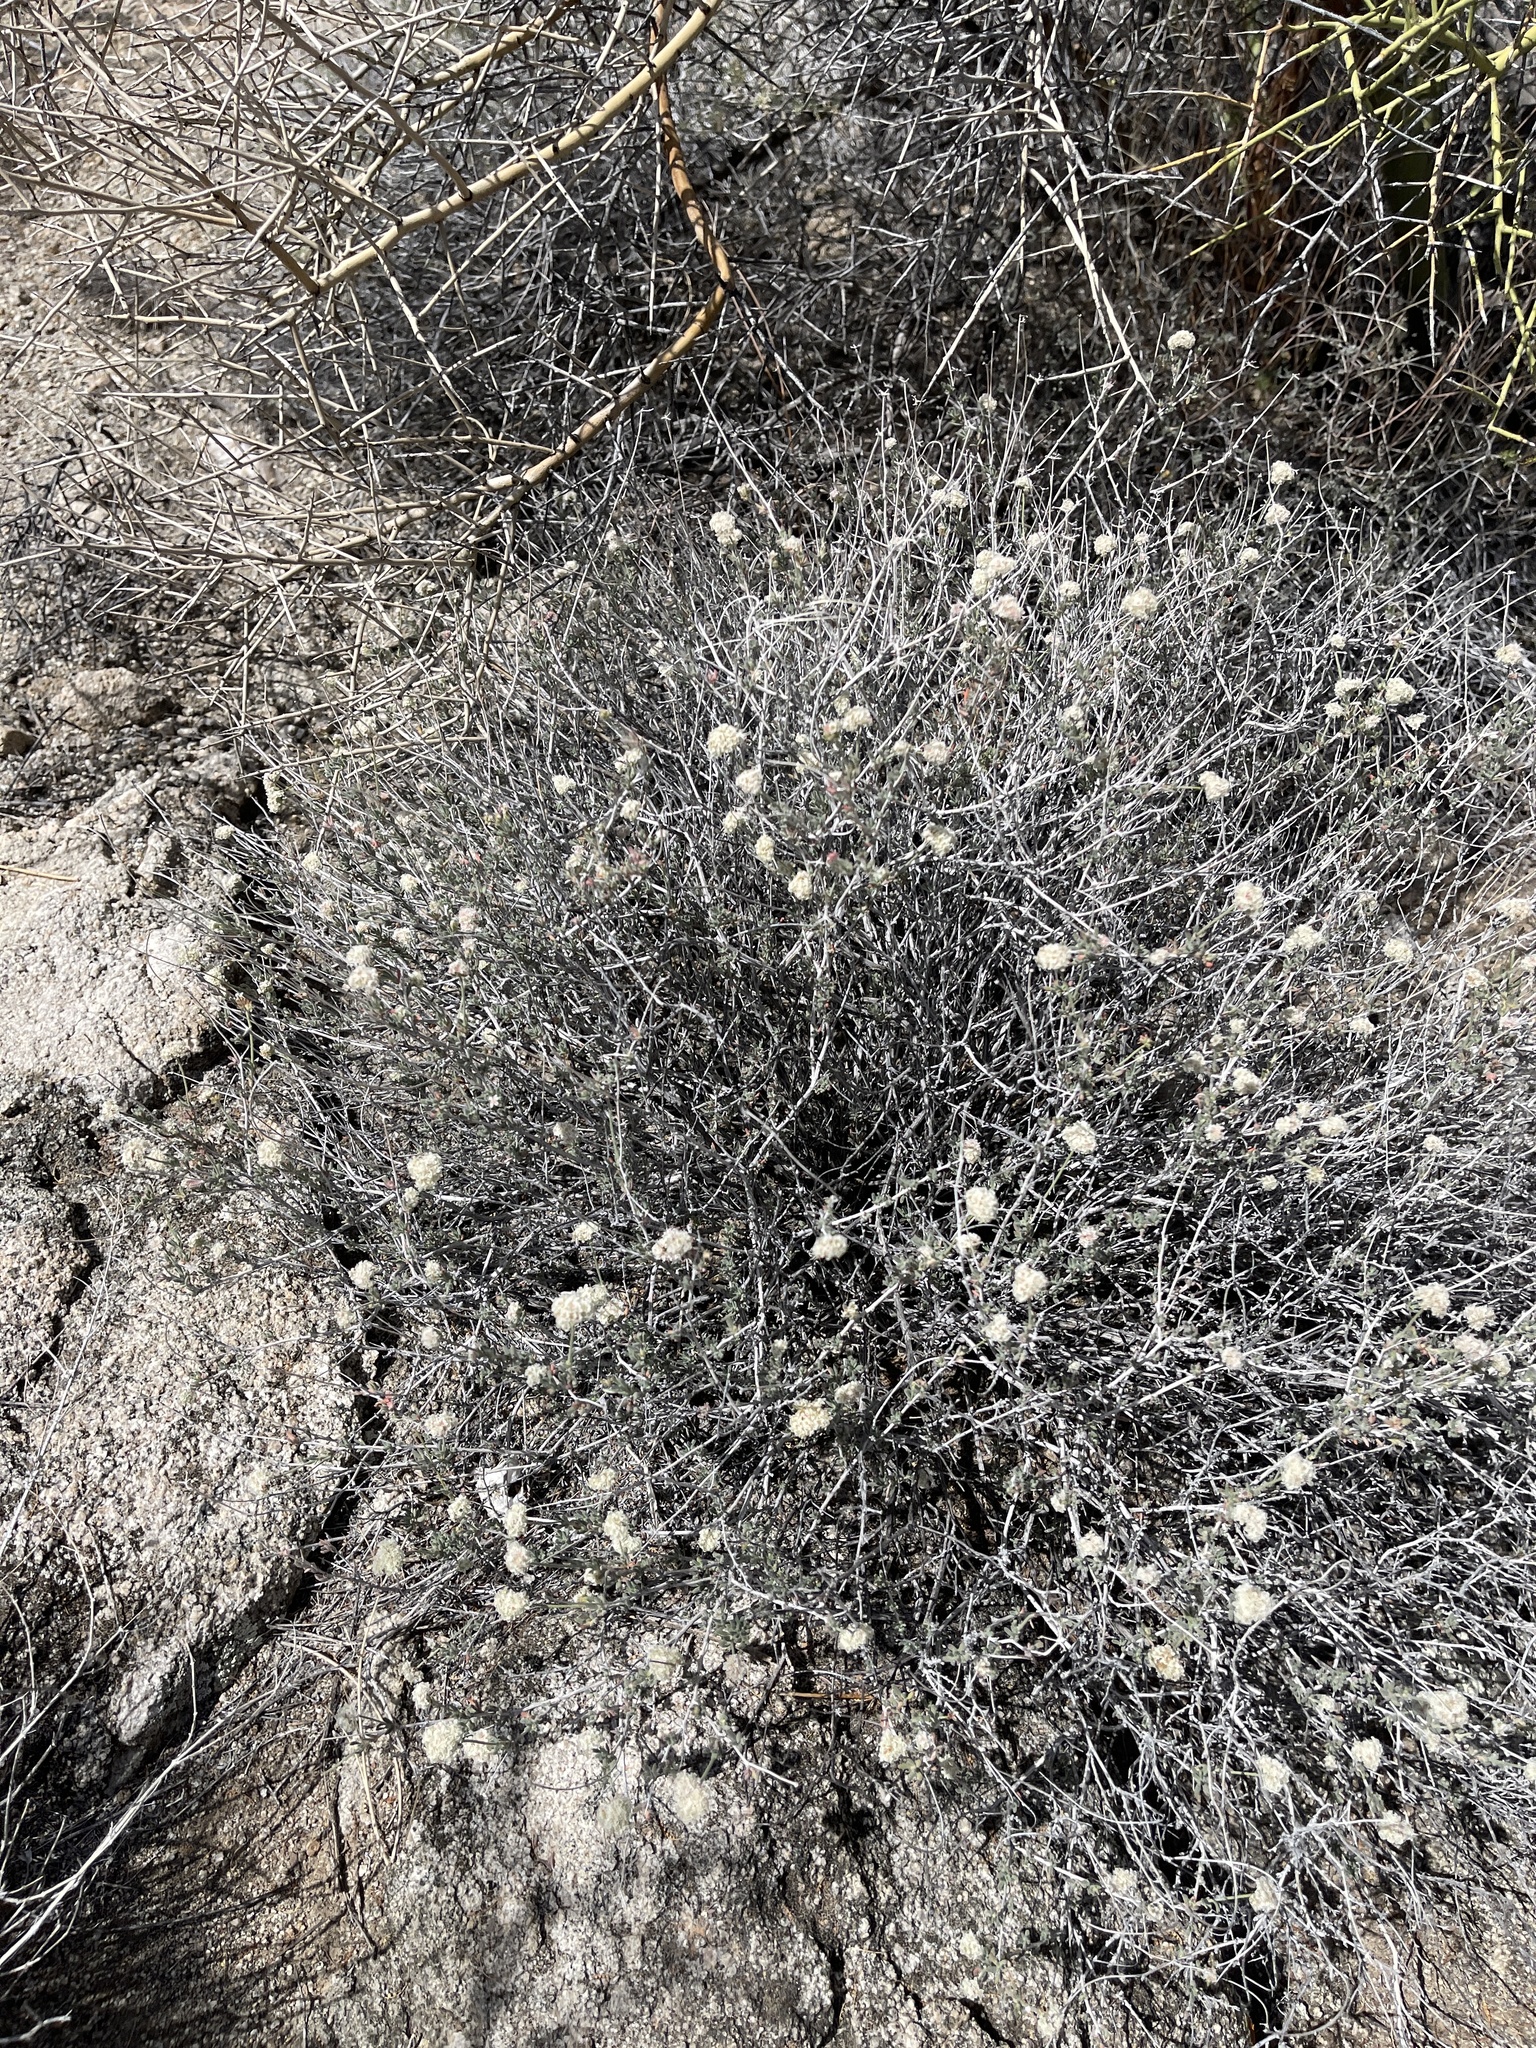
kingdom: Plantae
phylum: Tracheophyta
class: Magnoliopsida
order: Asterales
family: Asteraceae
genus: Bebbia
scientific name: Bebbia juncea
